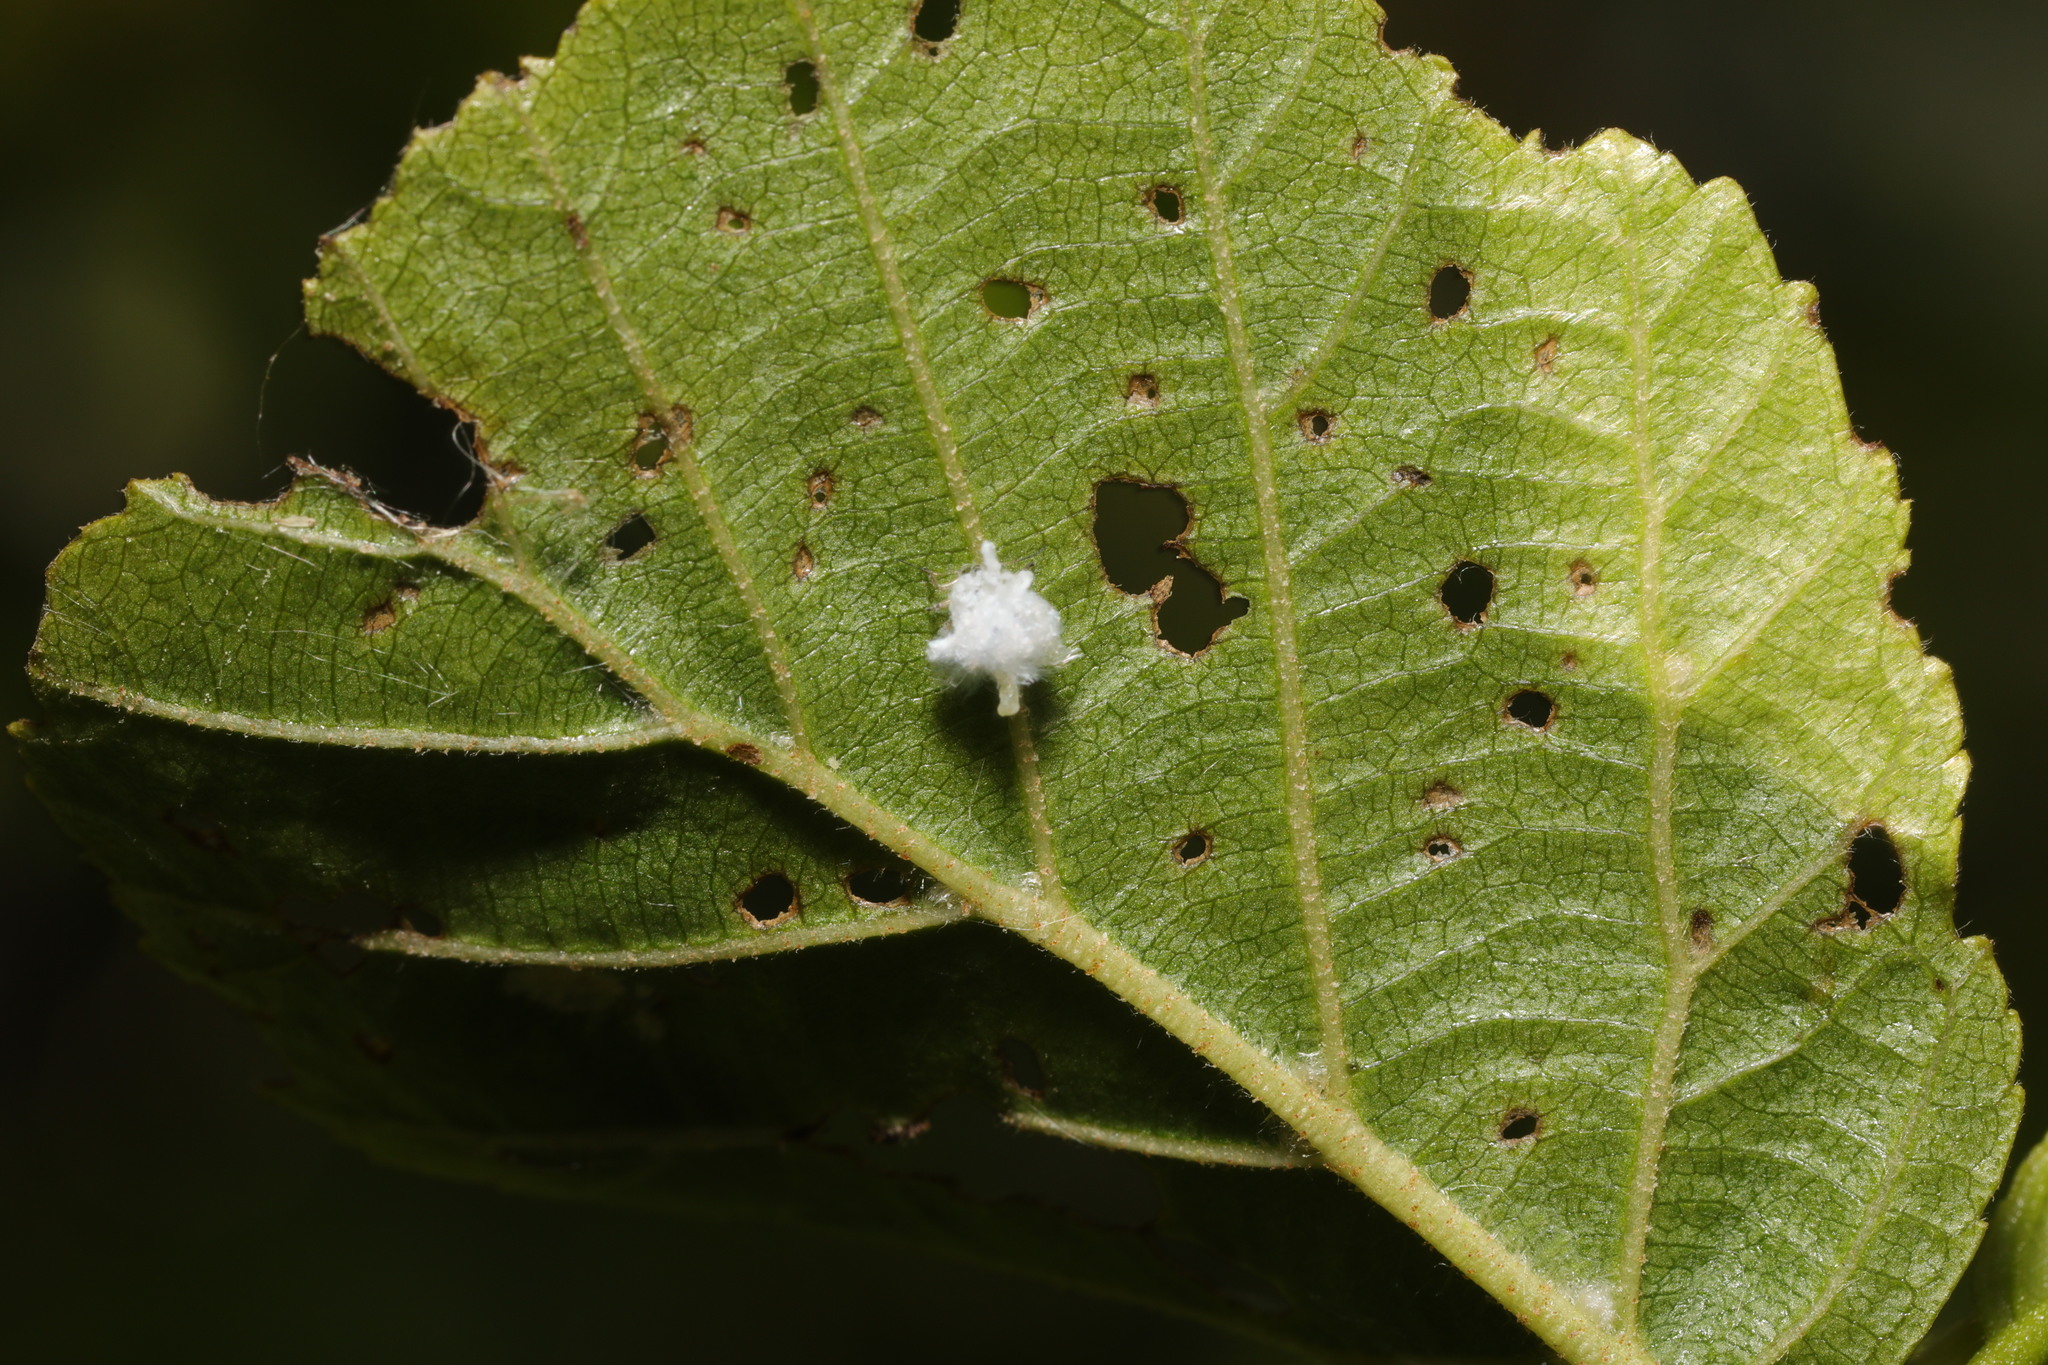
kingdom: Animalia
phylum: Arthropoda
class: Insecta
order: Hemiptera
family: Psyllidae
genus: Psylla
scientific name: Psylla alni
